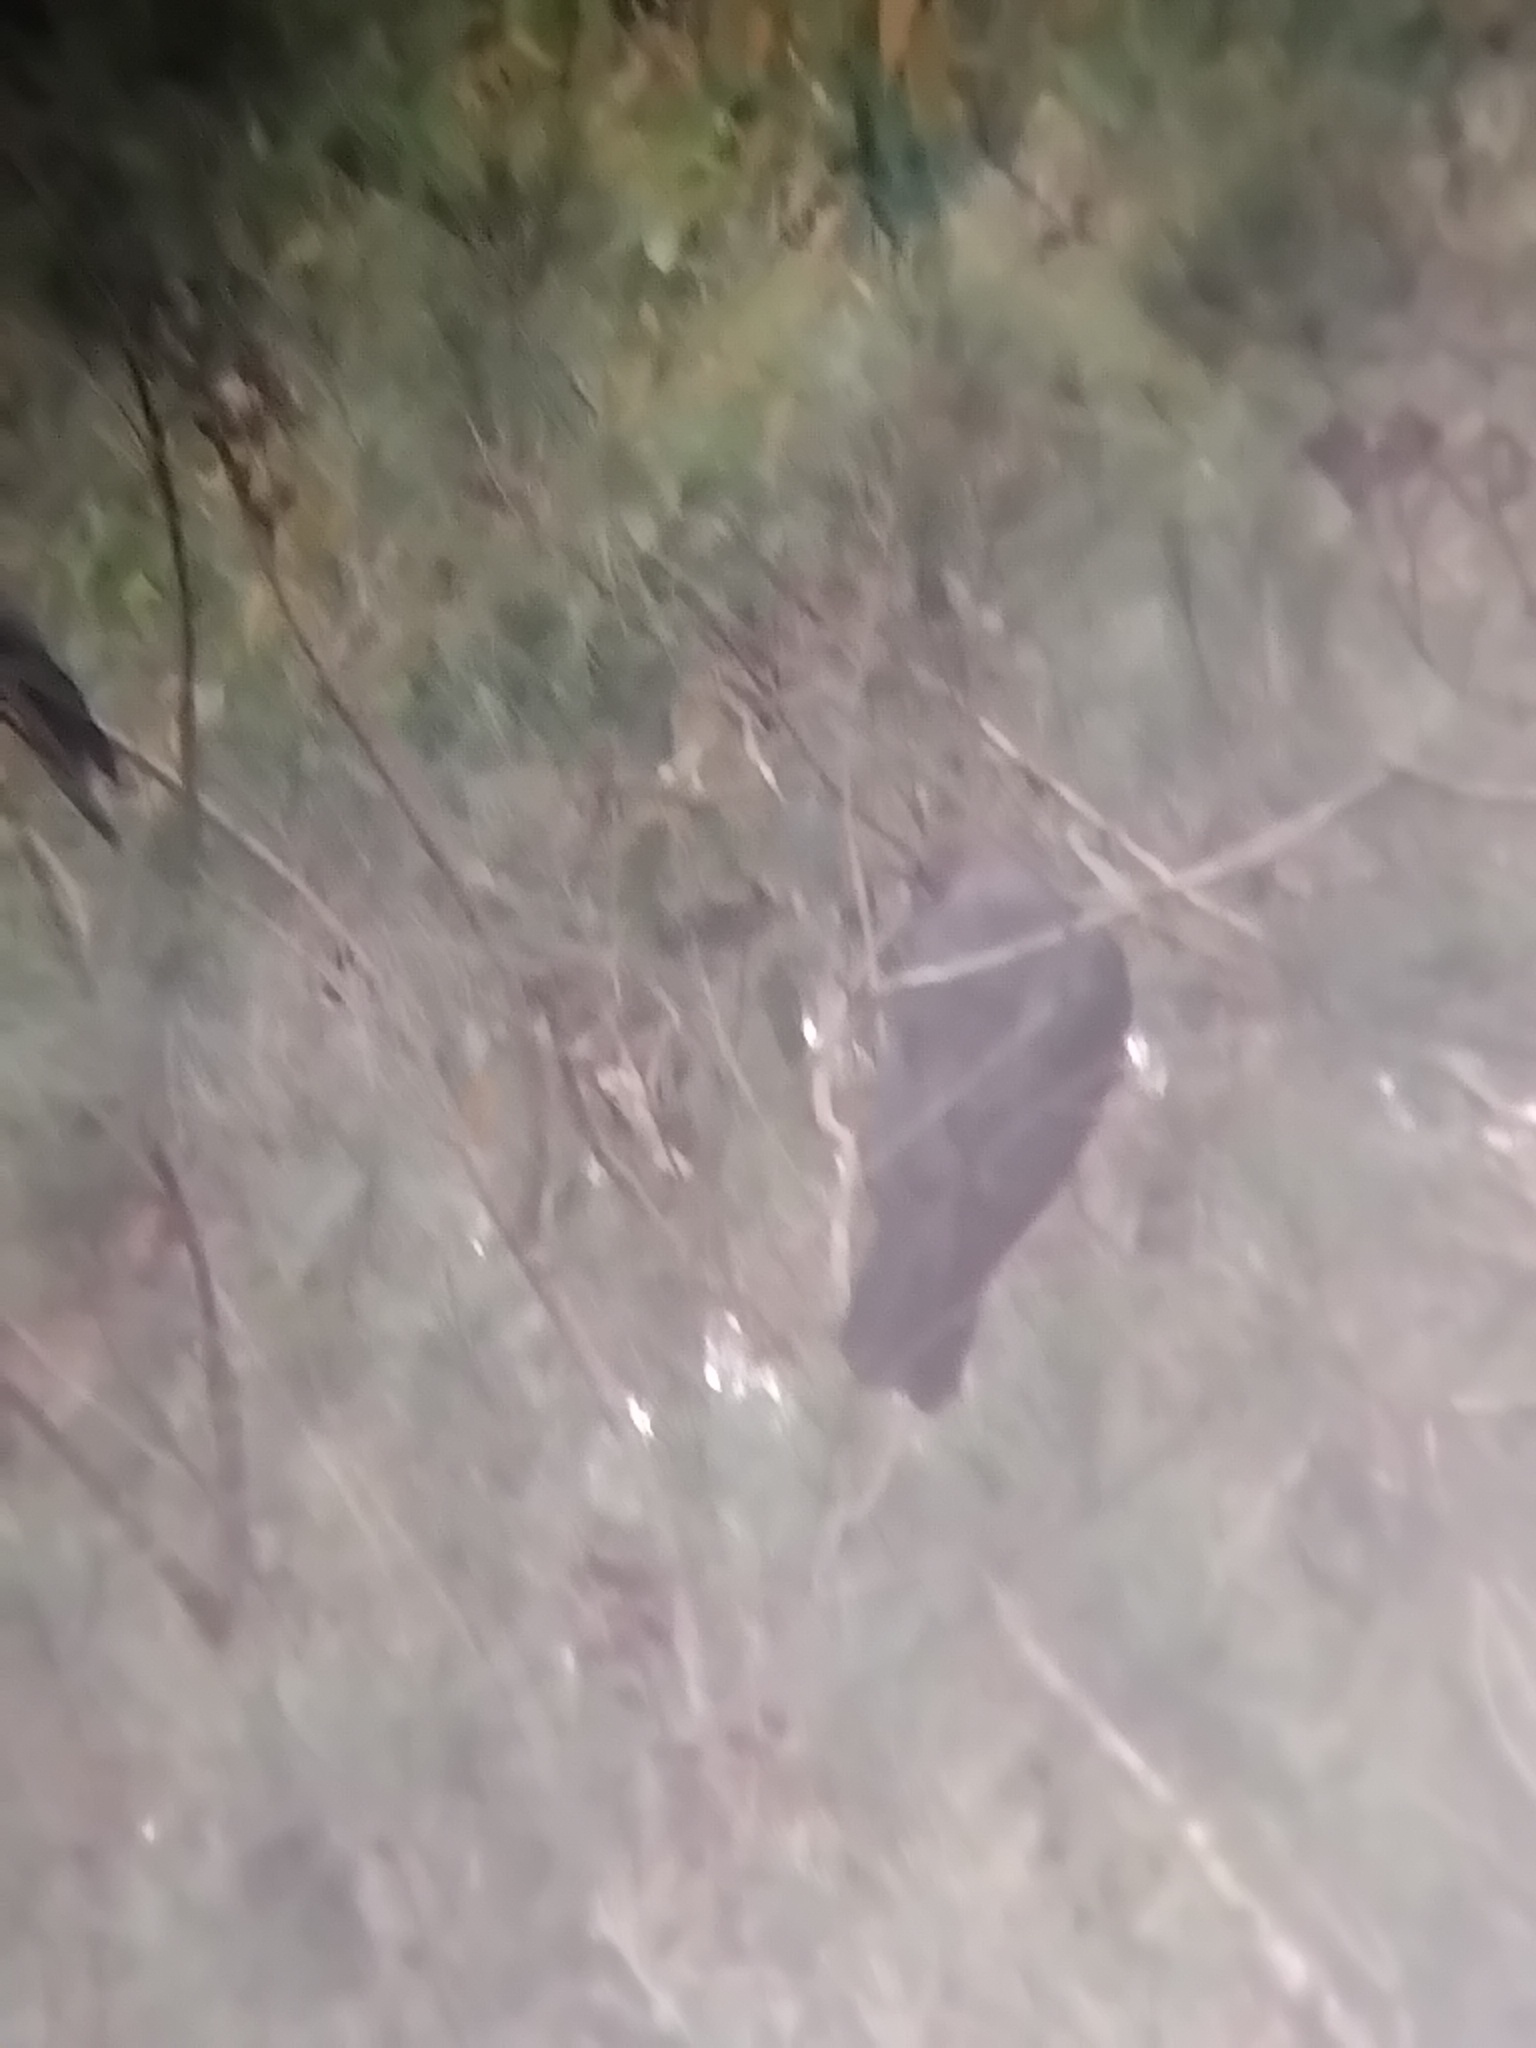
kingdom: Animalia
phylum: Chordata
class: Aves
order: Psittaciformes
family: Psittacidae
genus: Calyptorhynchus
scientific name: Calyptorhynchus lathami
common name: Glossy black cockatoo
